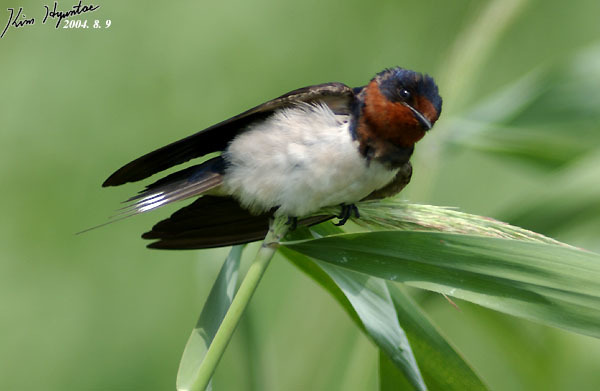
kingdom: Animalia
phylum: Chordata
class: Aves
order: Passeriformes
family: Hirundinidae
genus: Hirundo
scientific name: Hirundo rustica
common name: Barn swallow
